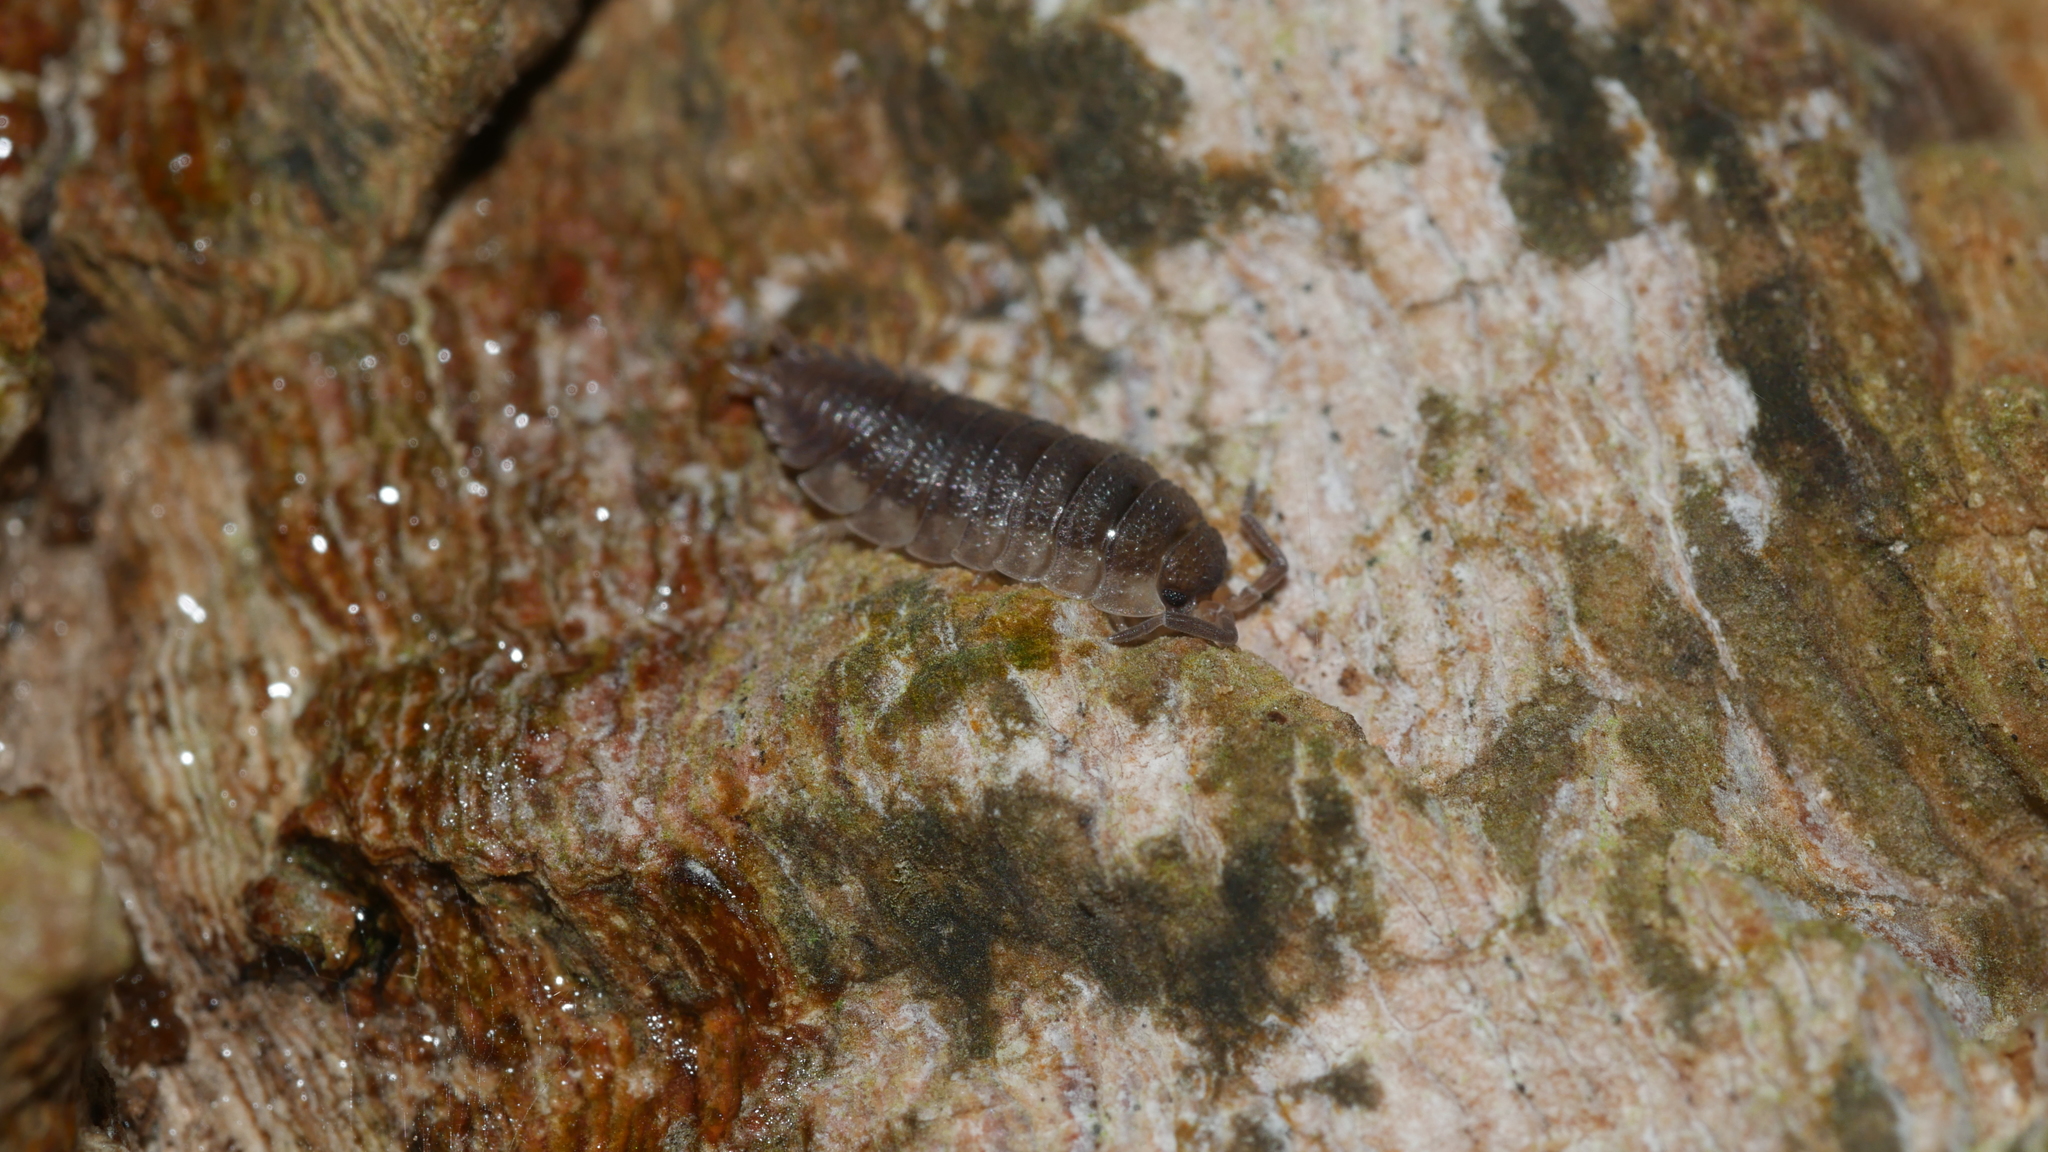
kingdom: Animalia
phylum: Arthropoda
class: Malacostraca
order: Isopoda
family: Porcellionidae
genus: Porcellio
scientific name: Porcellio scaber
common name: Common rough woodlouse
